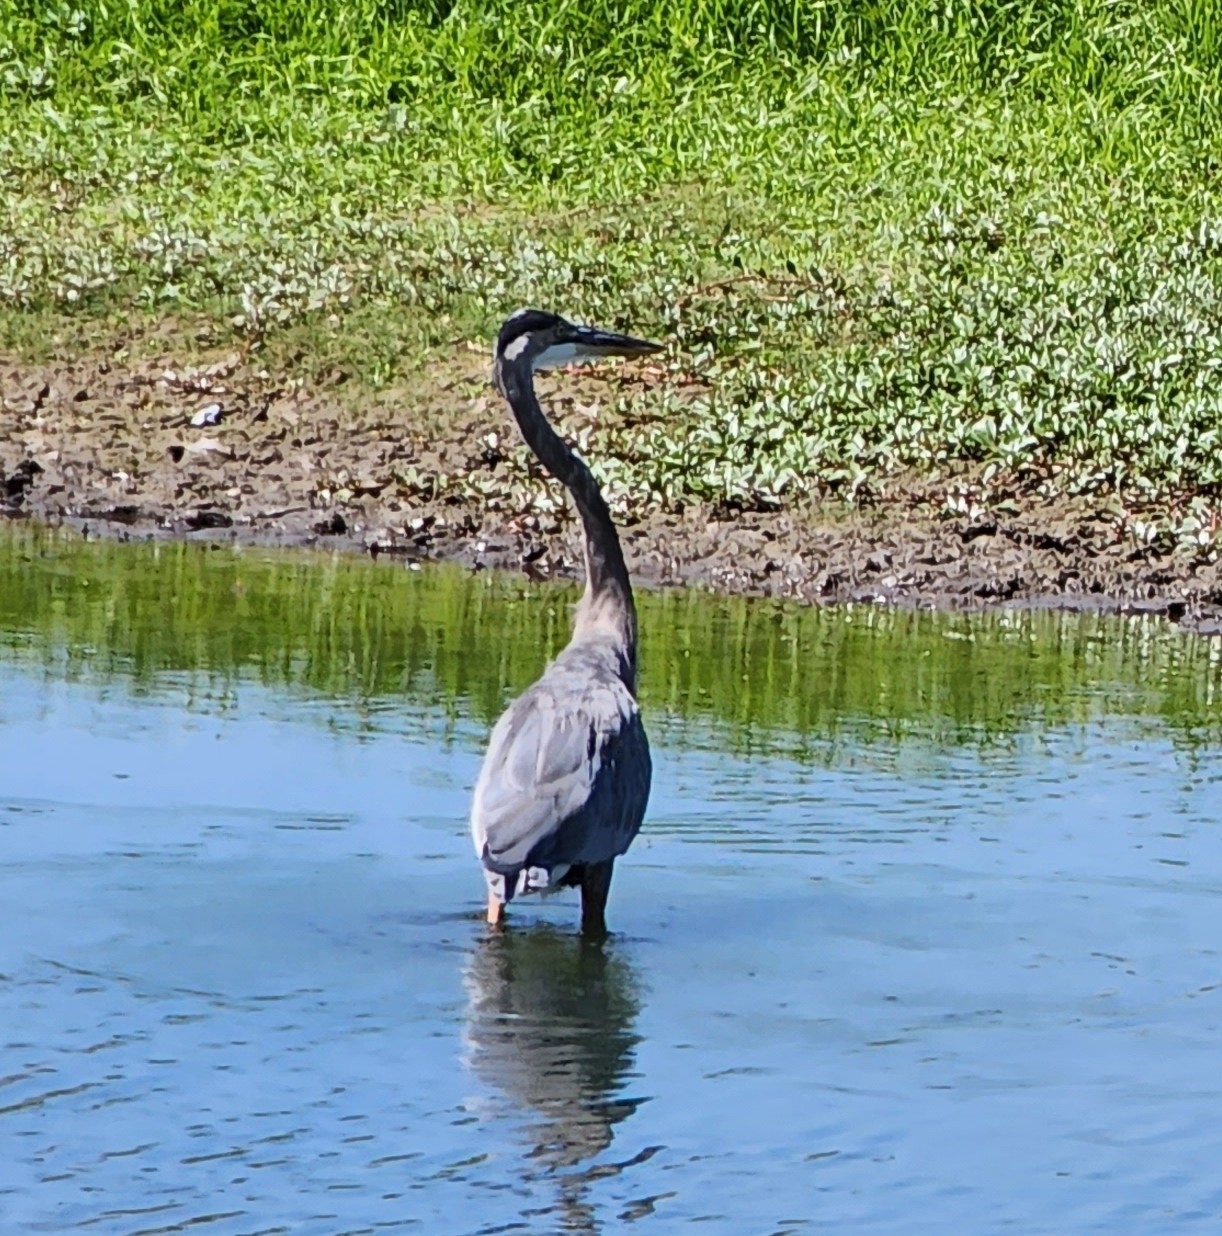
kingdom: Animalia
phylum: Chordata
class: Aves
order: Pelecaniformes
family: Ardeidae
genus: Ardea
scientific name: Ardea herodias
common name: Great blue heron
